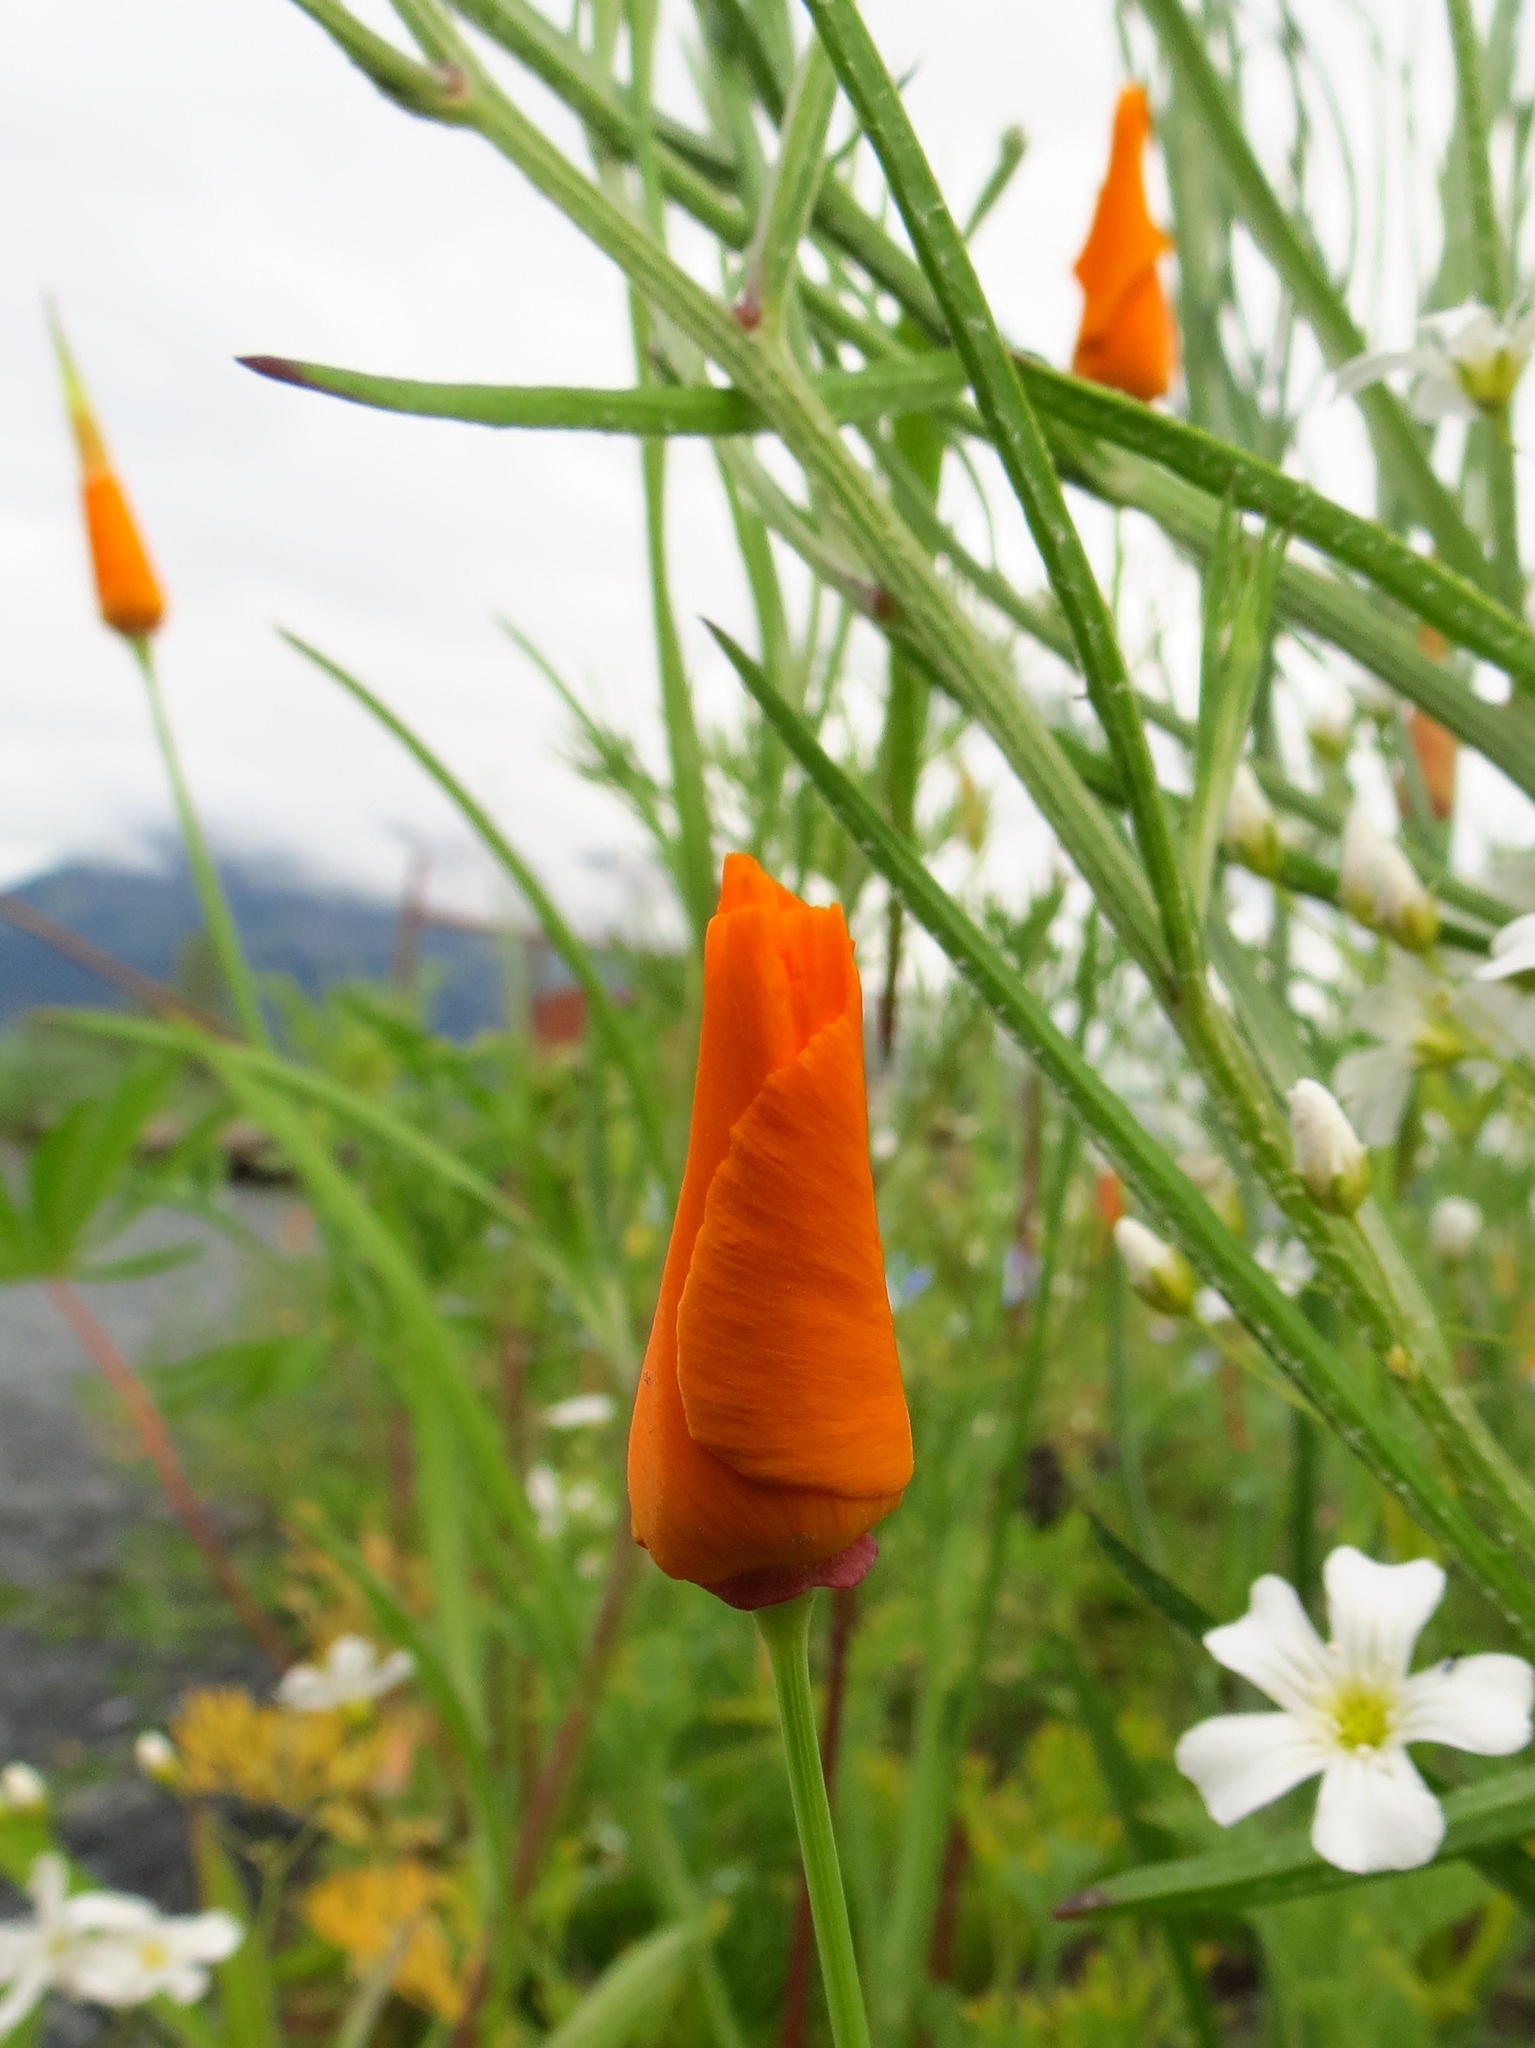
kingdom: Plantae
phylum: Tracheophyta
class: Magnoliopsida
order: Ranunculales
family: Papaveraceae
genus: Eschscholzia
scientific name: Eschscholzia californica
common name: California poppy
